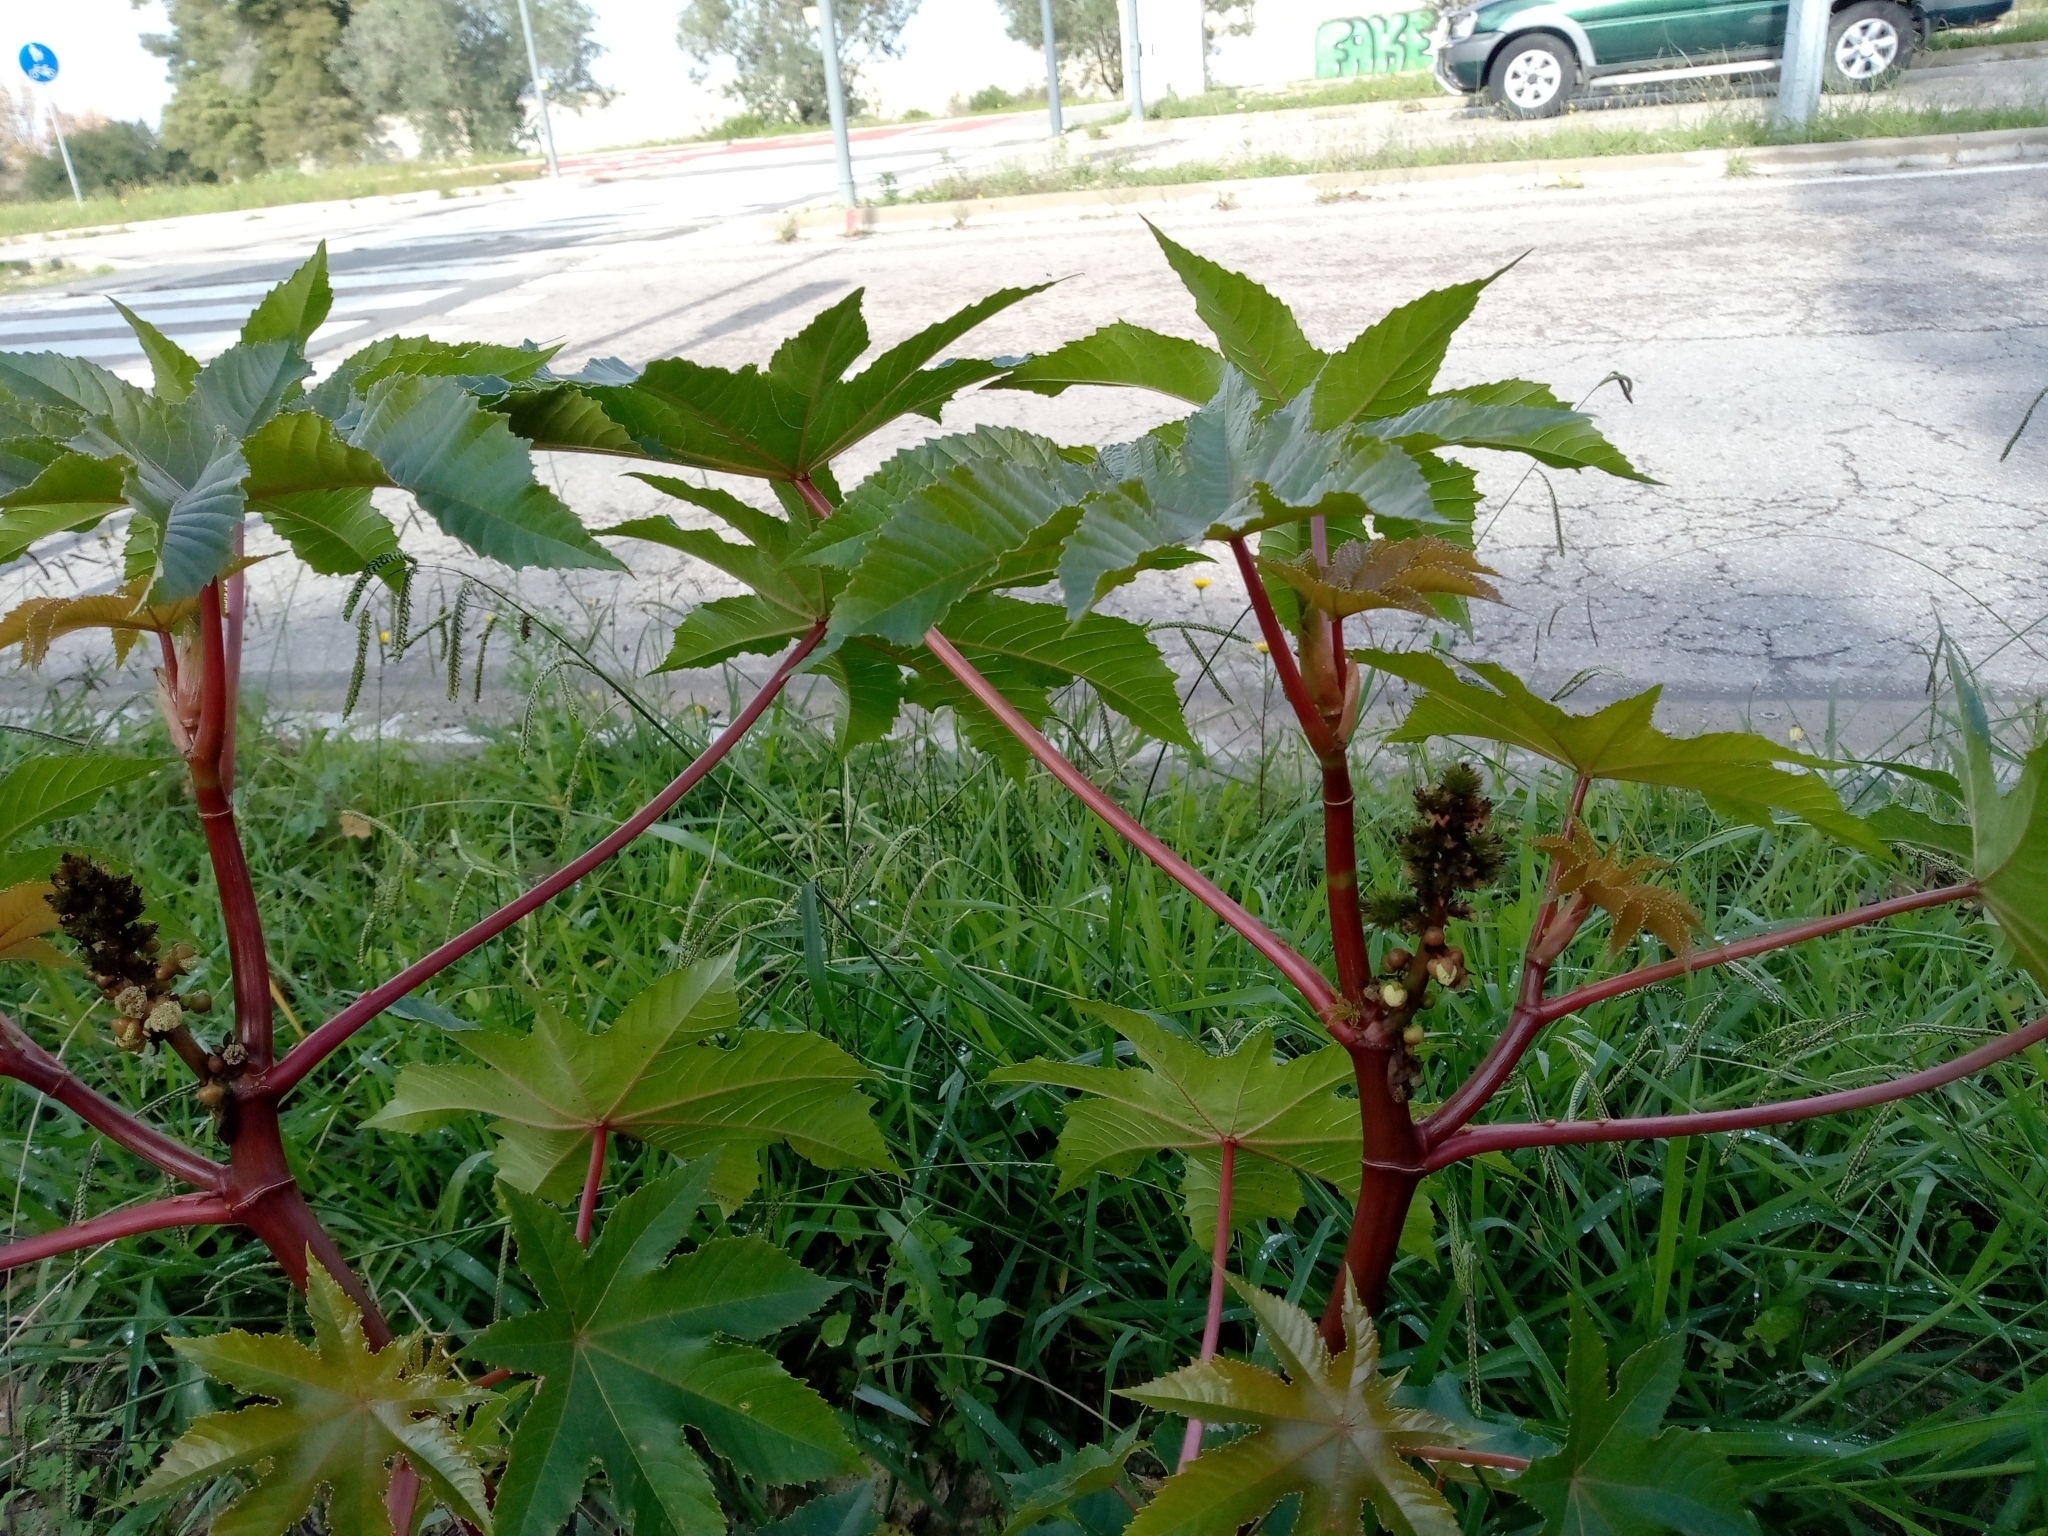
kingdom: Plantae
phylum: Tracheophyta
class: Magnoliopsida
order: Malpighiales
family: Euphorbiaceae
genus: Ricinus
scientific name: Ricinus communis
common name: Castor-oil-plant
